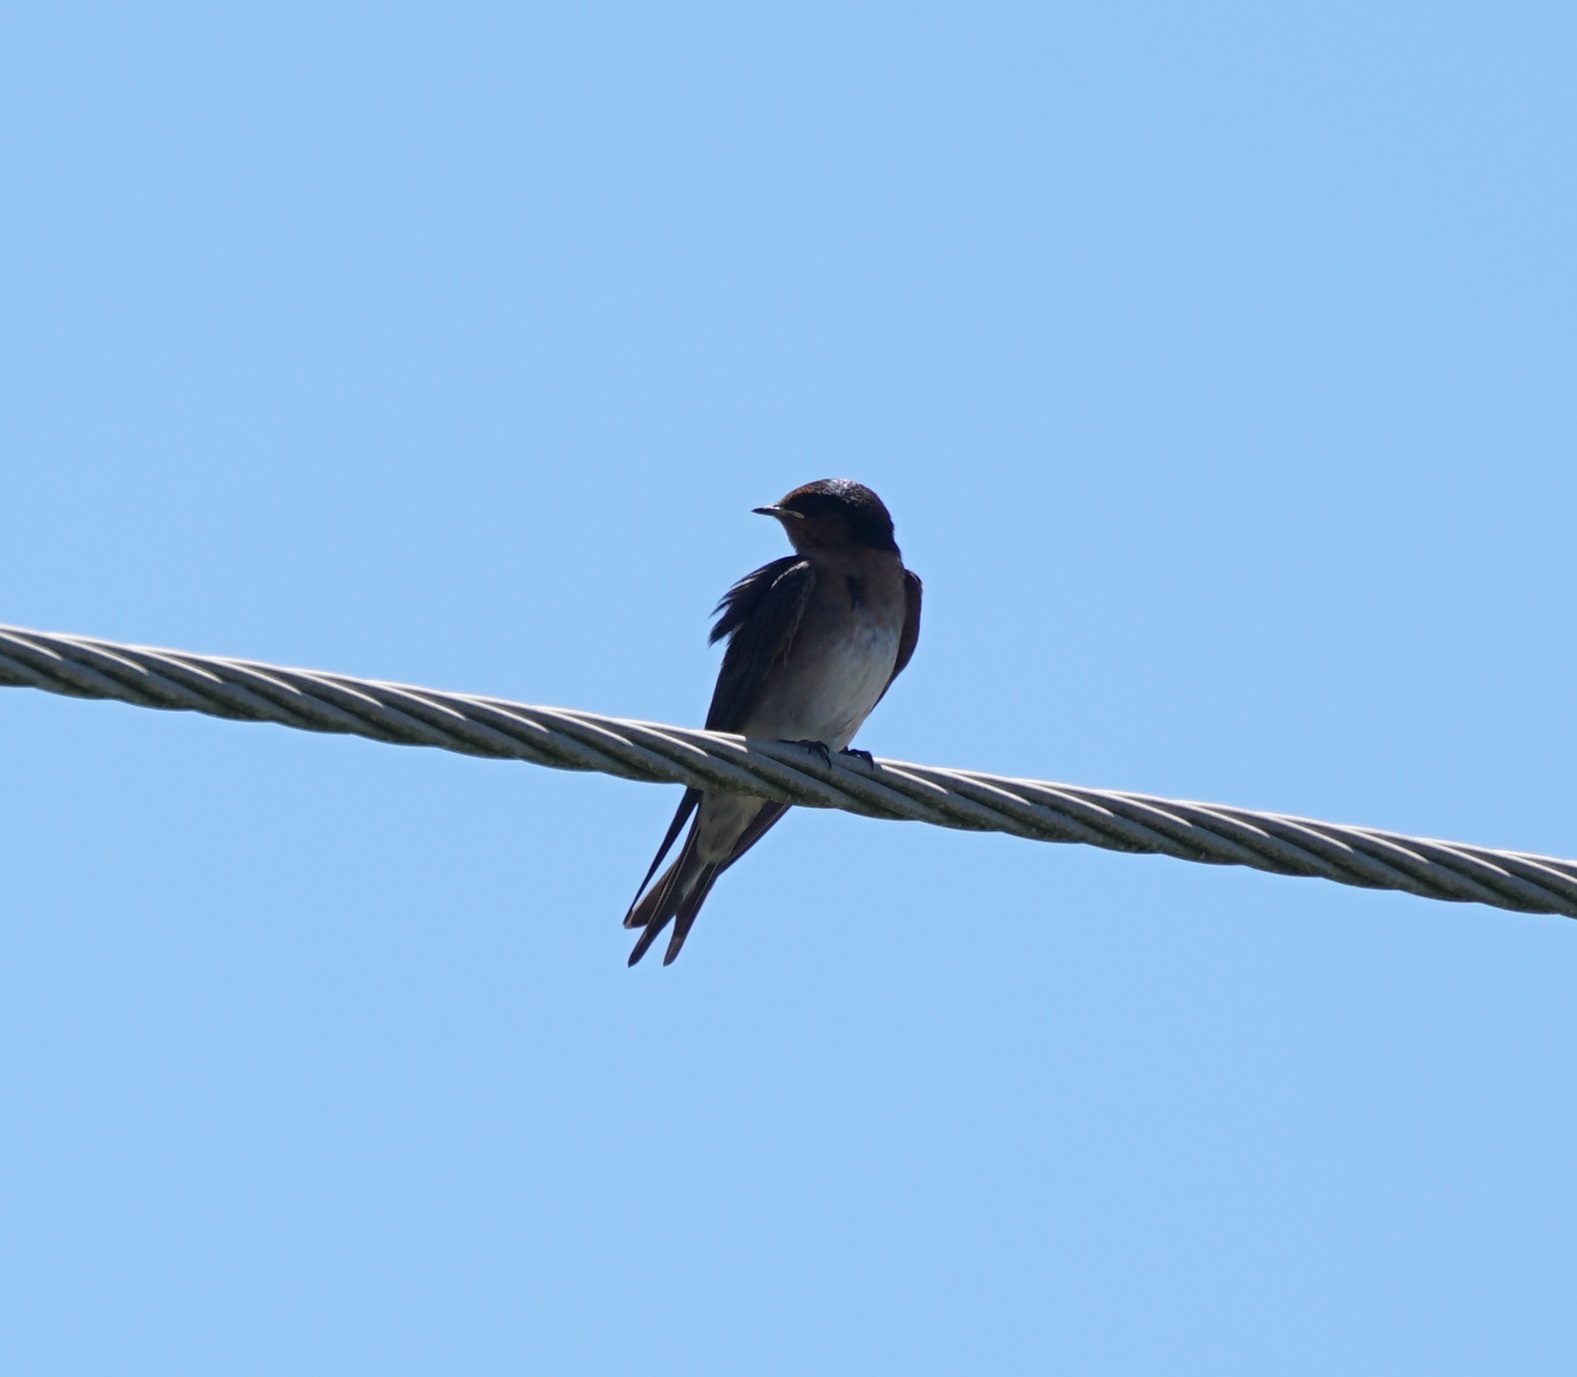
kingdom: Animalia
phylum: Chordata
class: Aves
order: Passeriformes
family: Hirundinidae
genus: Hirundo
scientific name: Hirundo neoxena
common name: Welcome swallow
